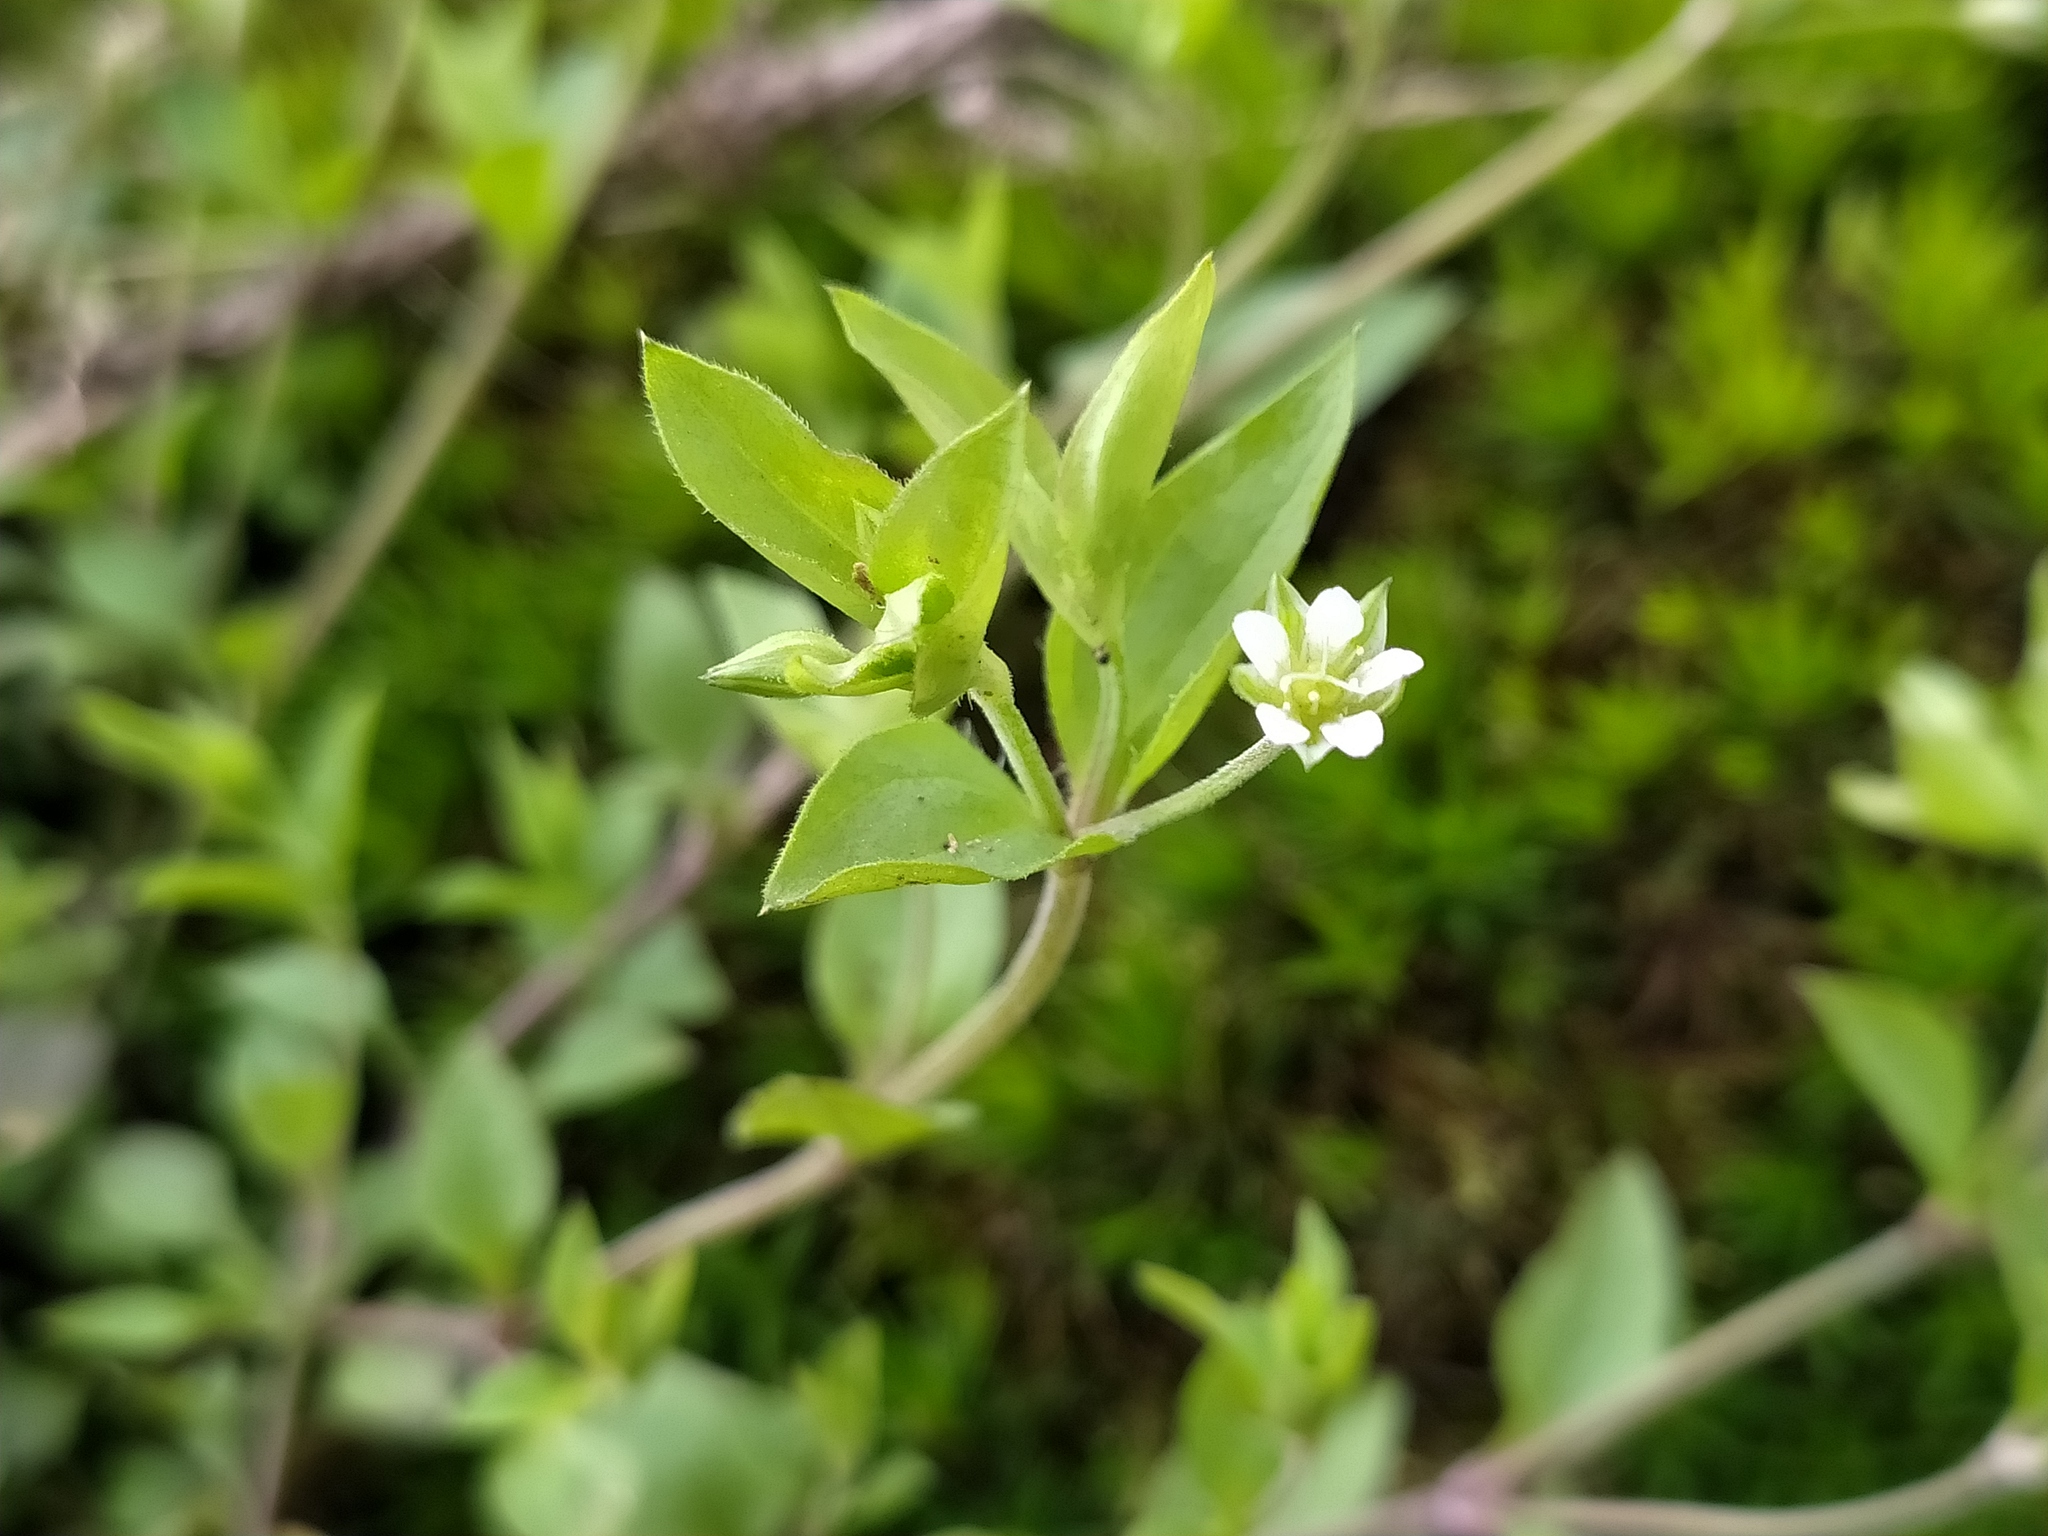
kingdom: Plantae
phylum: Tracheophyta
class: Magnoliopsida
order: Caryophyllales
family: Caryophyllaceae
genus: Moehringia
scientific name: Moehringia trinervia
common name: Three-nerved sandwort
